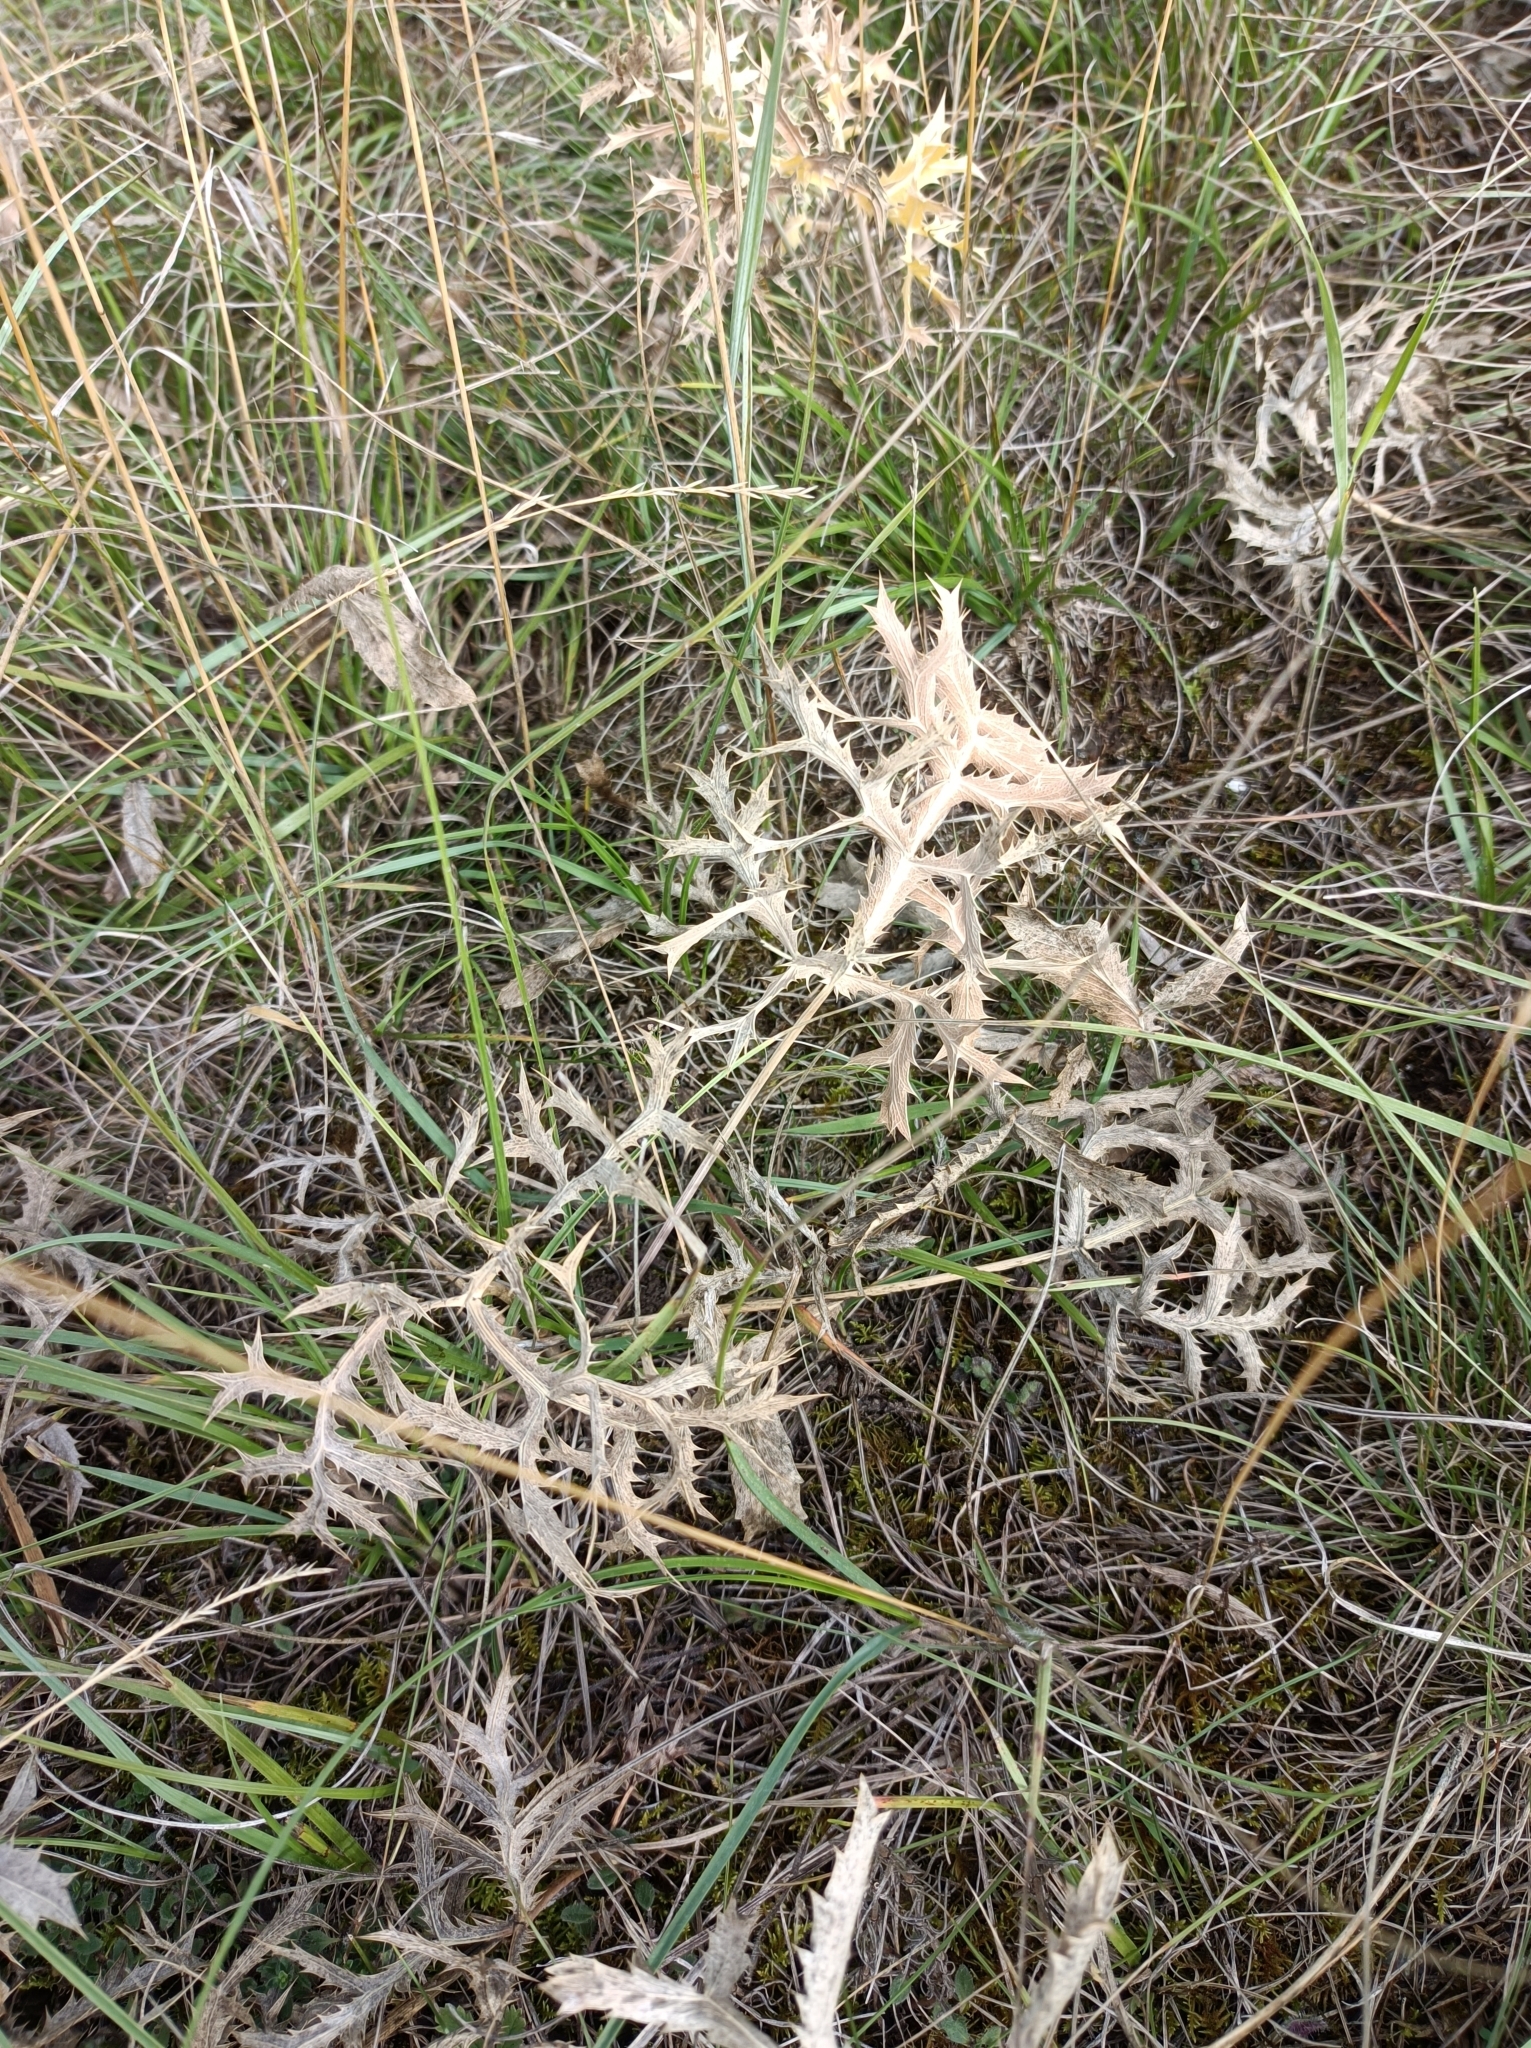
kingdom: Plantae
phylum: Tracheophyta
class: Magnoliopsida
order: Apiales
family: Apiaceae
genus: Eryngium
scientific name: Eryngium campestre
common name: Field eryngo
